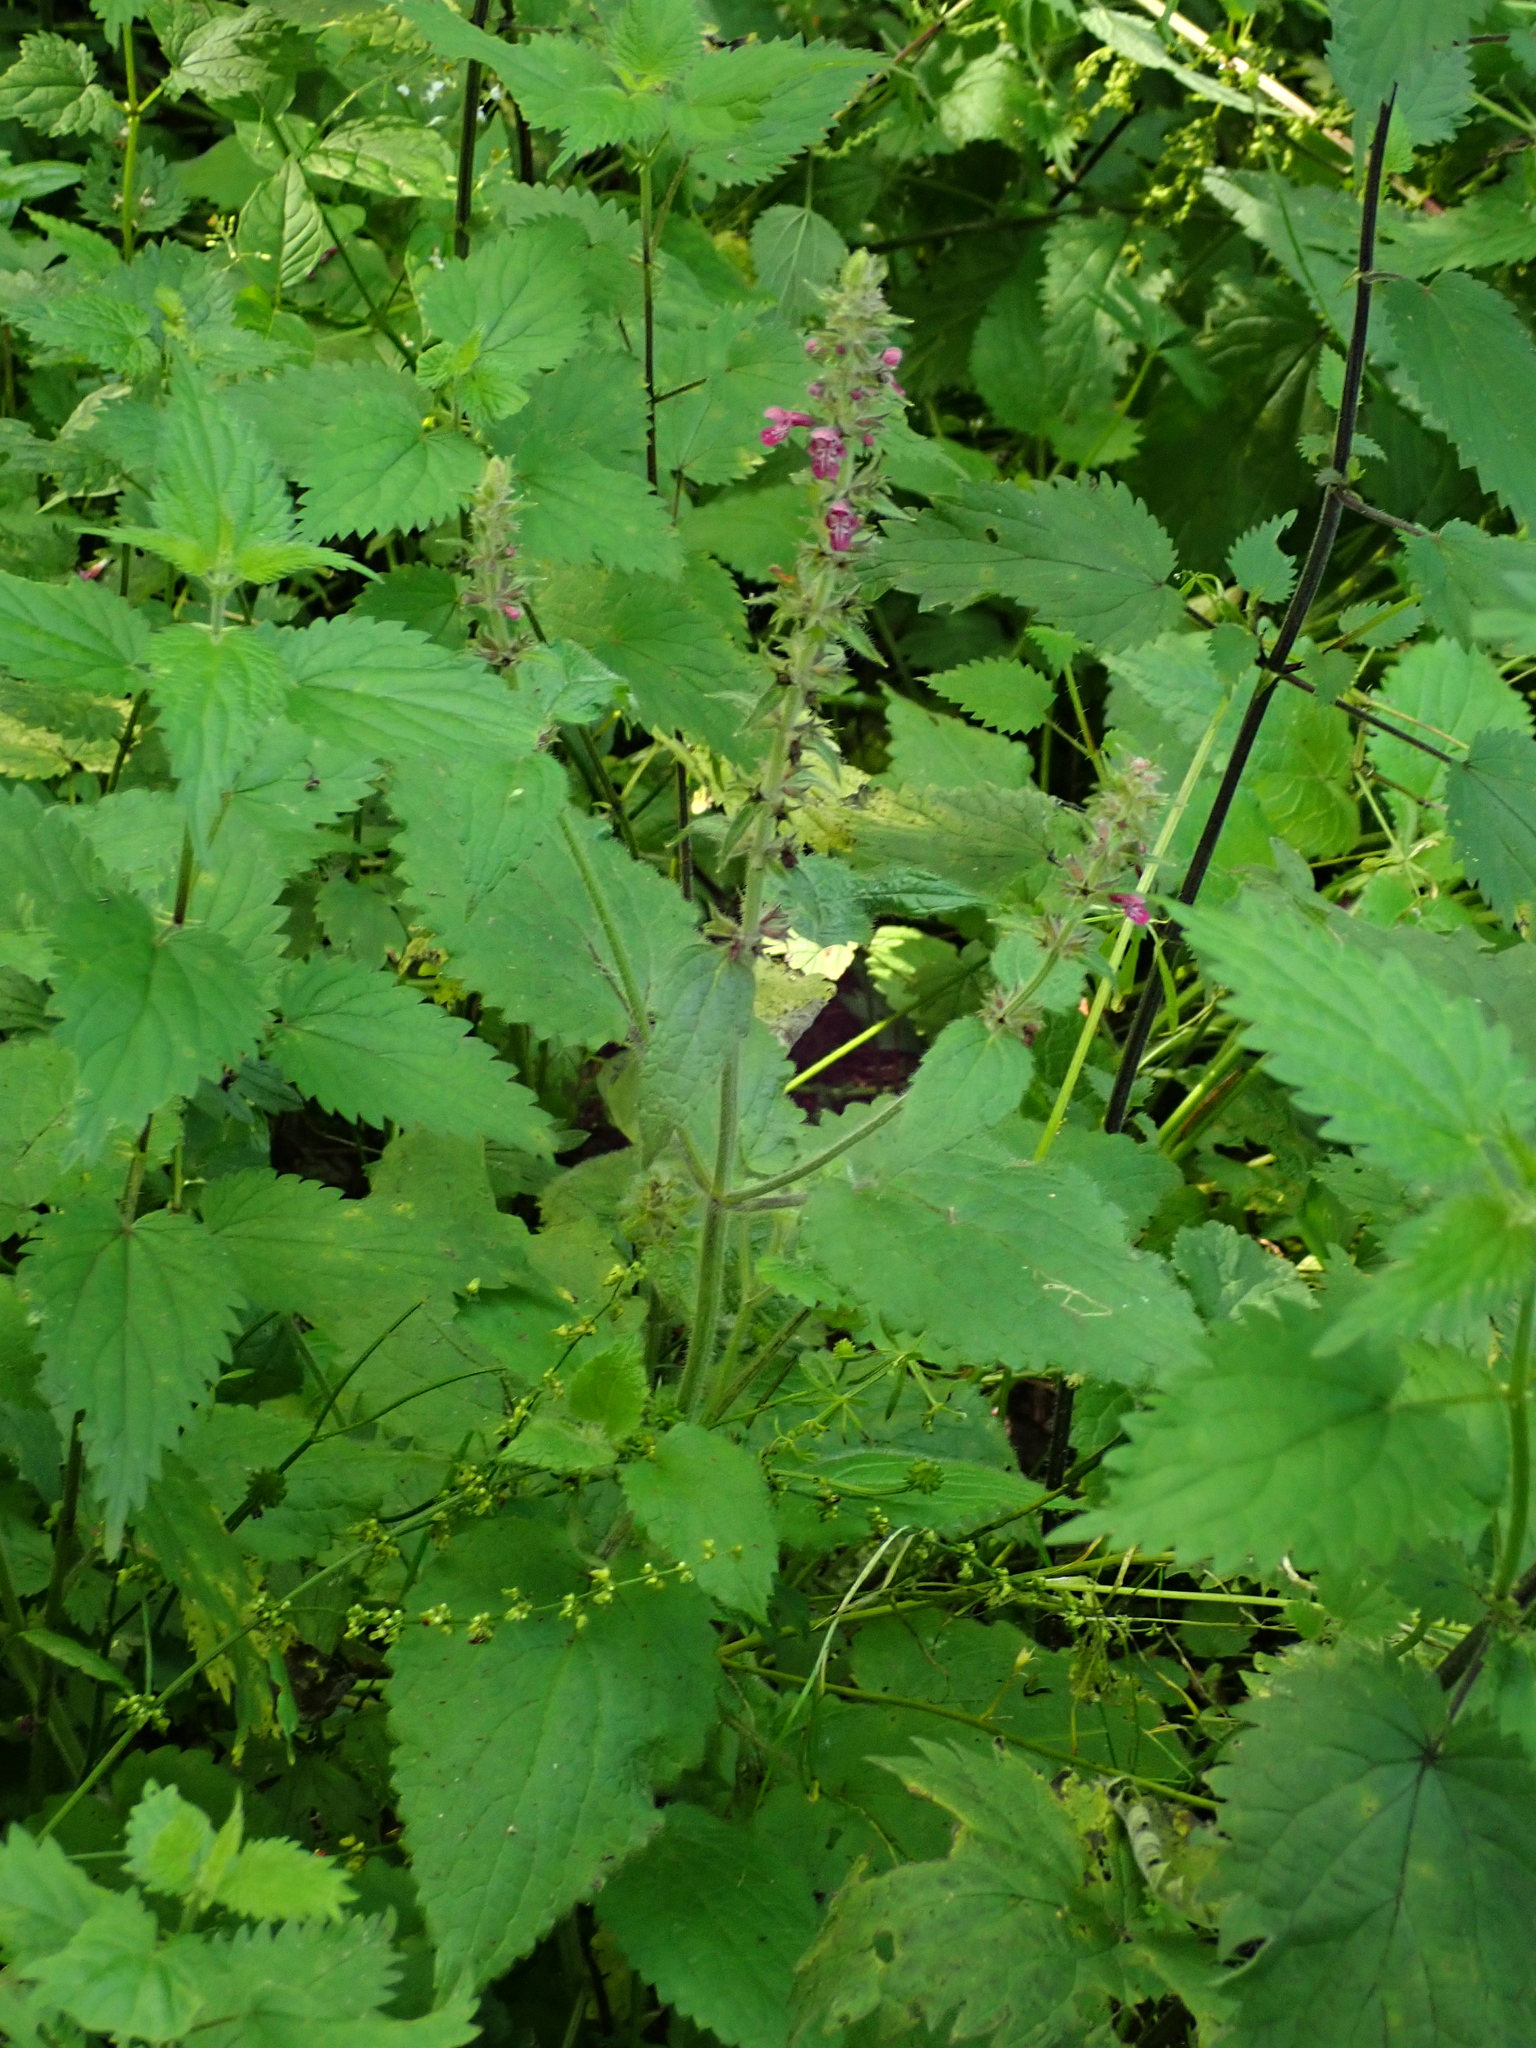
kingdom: Plantae
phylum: Tracheophyta
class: Magnoliopsida
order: Lamiales
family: Lamiaceae
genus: Stachys
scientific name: Stachys sylvatica
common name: Hedge woundwort
